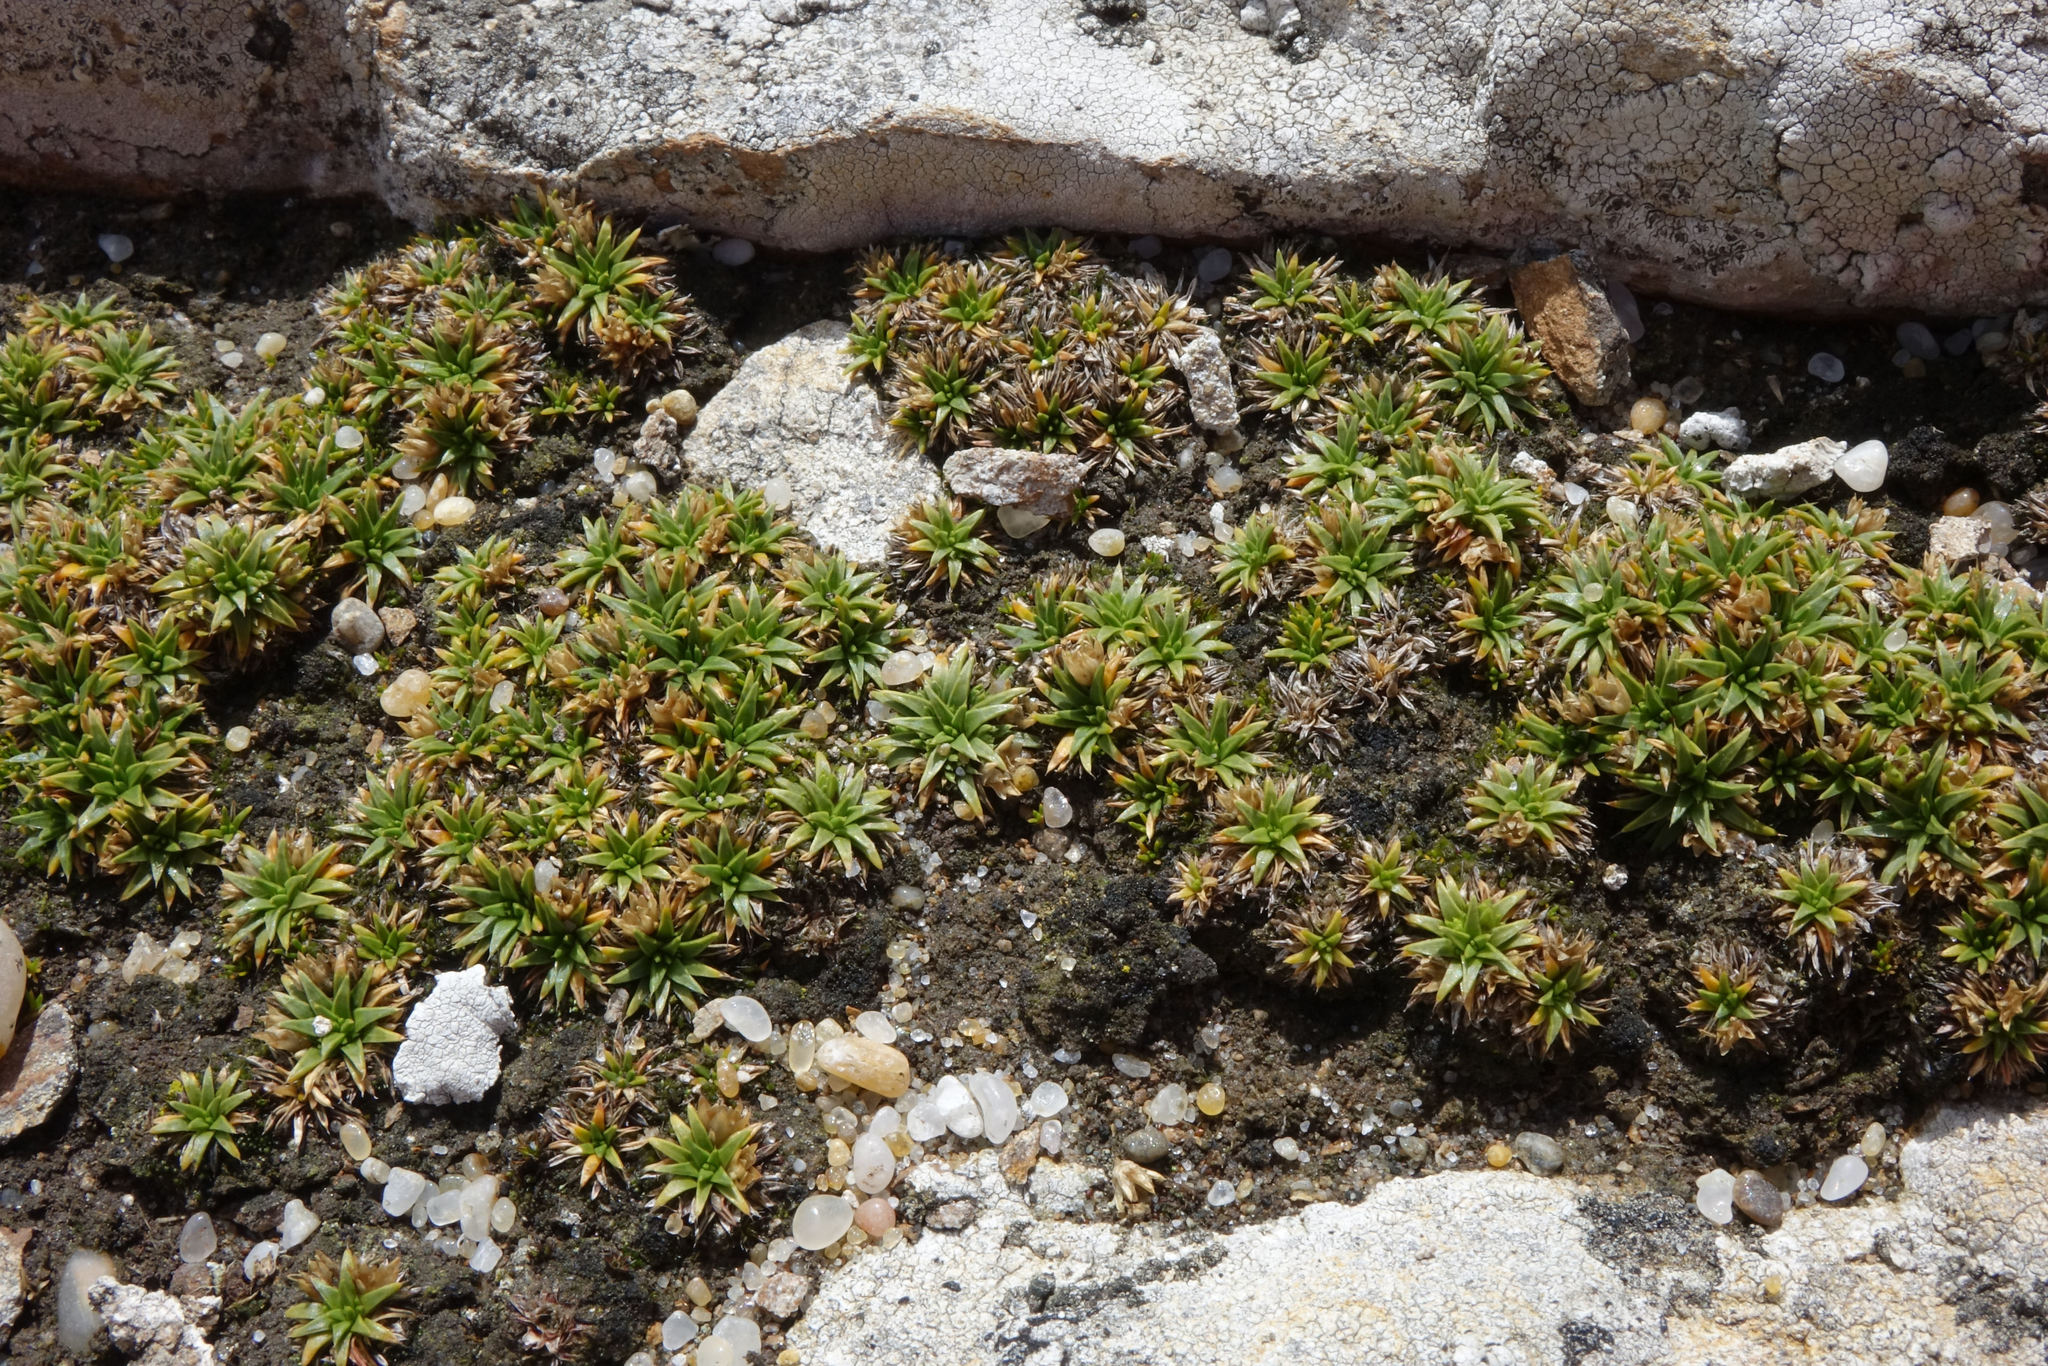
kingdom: Plantae
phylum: Tracheophyta
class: Magnoliopsida
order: Caryophyllales
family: Caryophyllaceae
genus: Colobanthus
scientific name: Colobanthus muelleri
